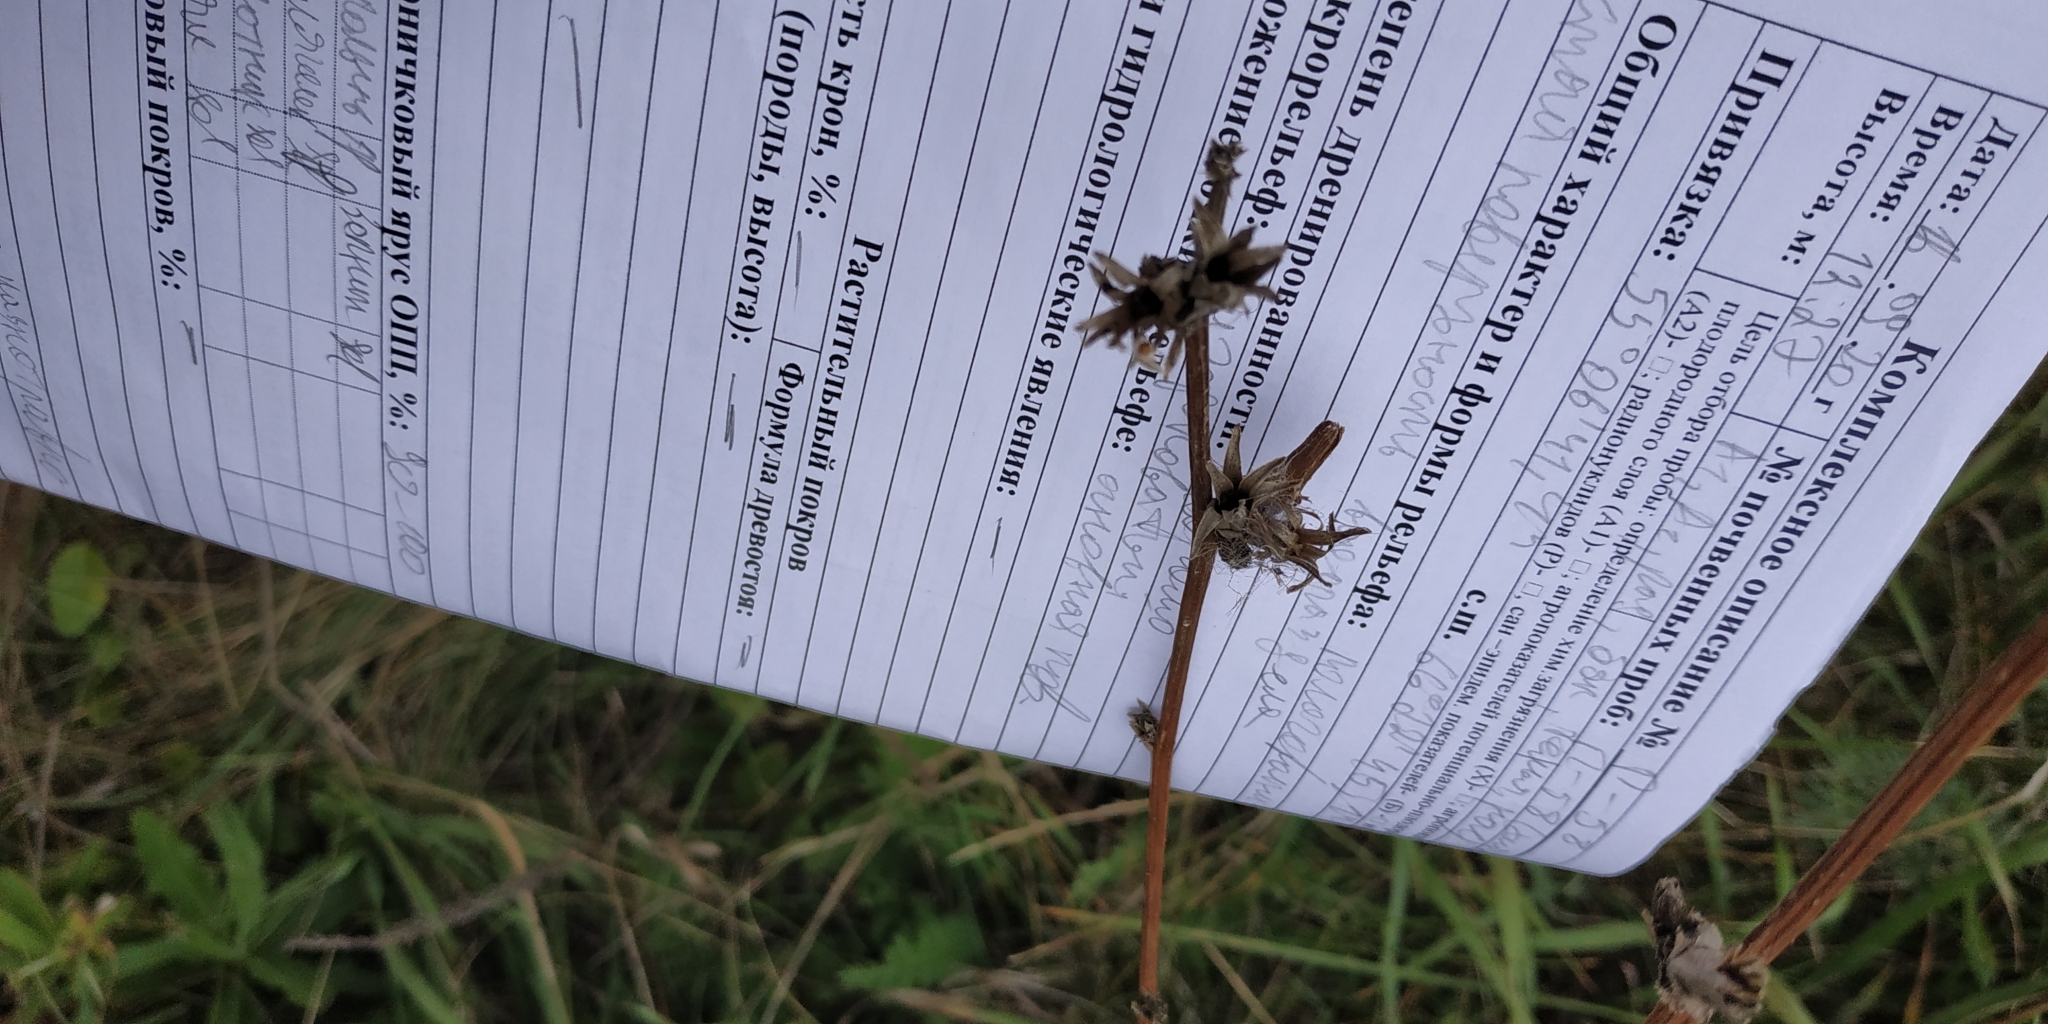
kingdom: Plantae
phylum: Tracheophyta
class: Magnoliopsida
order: Asterales
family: Asteraceae
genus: Cichorium
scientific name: Cichorium intybus
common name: Chicory
